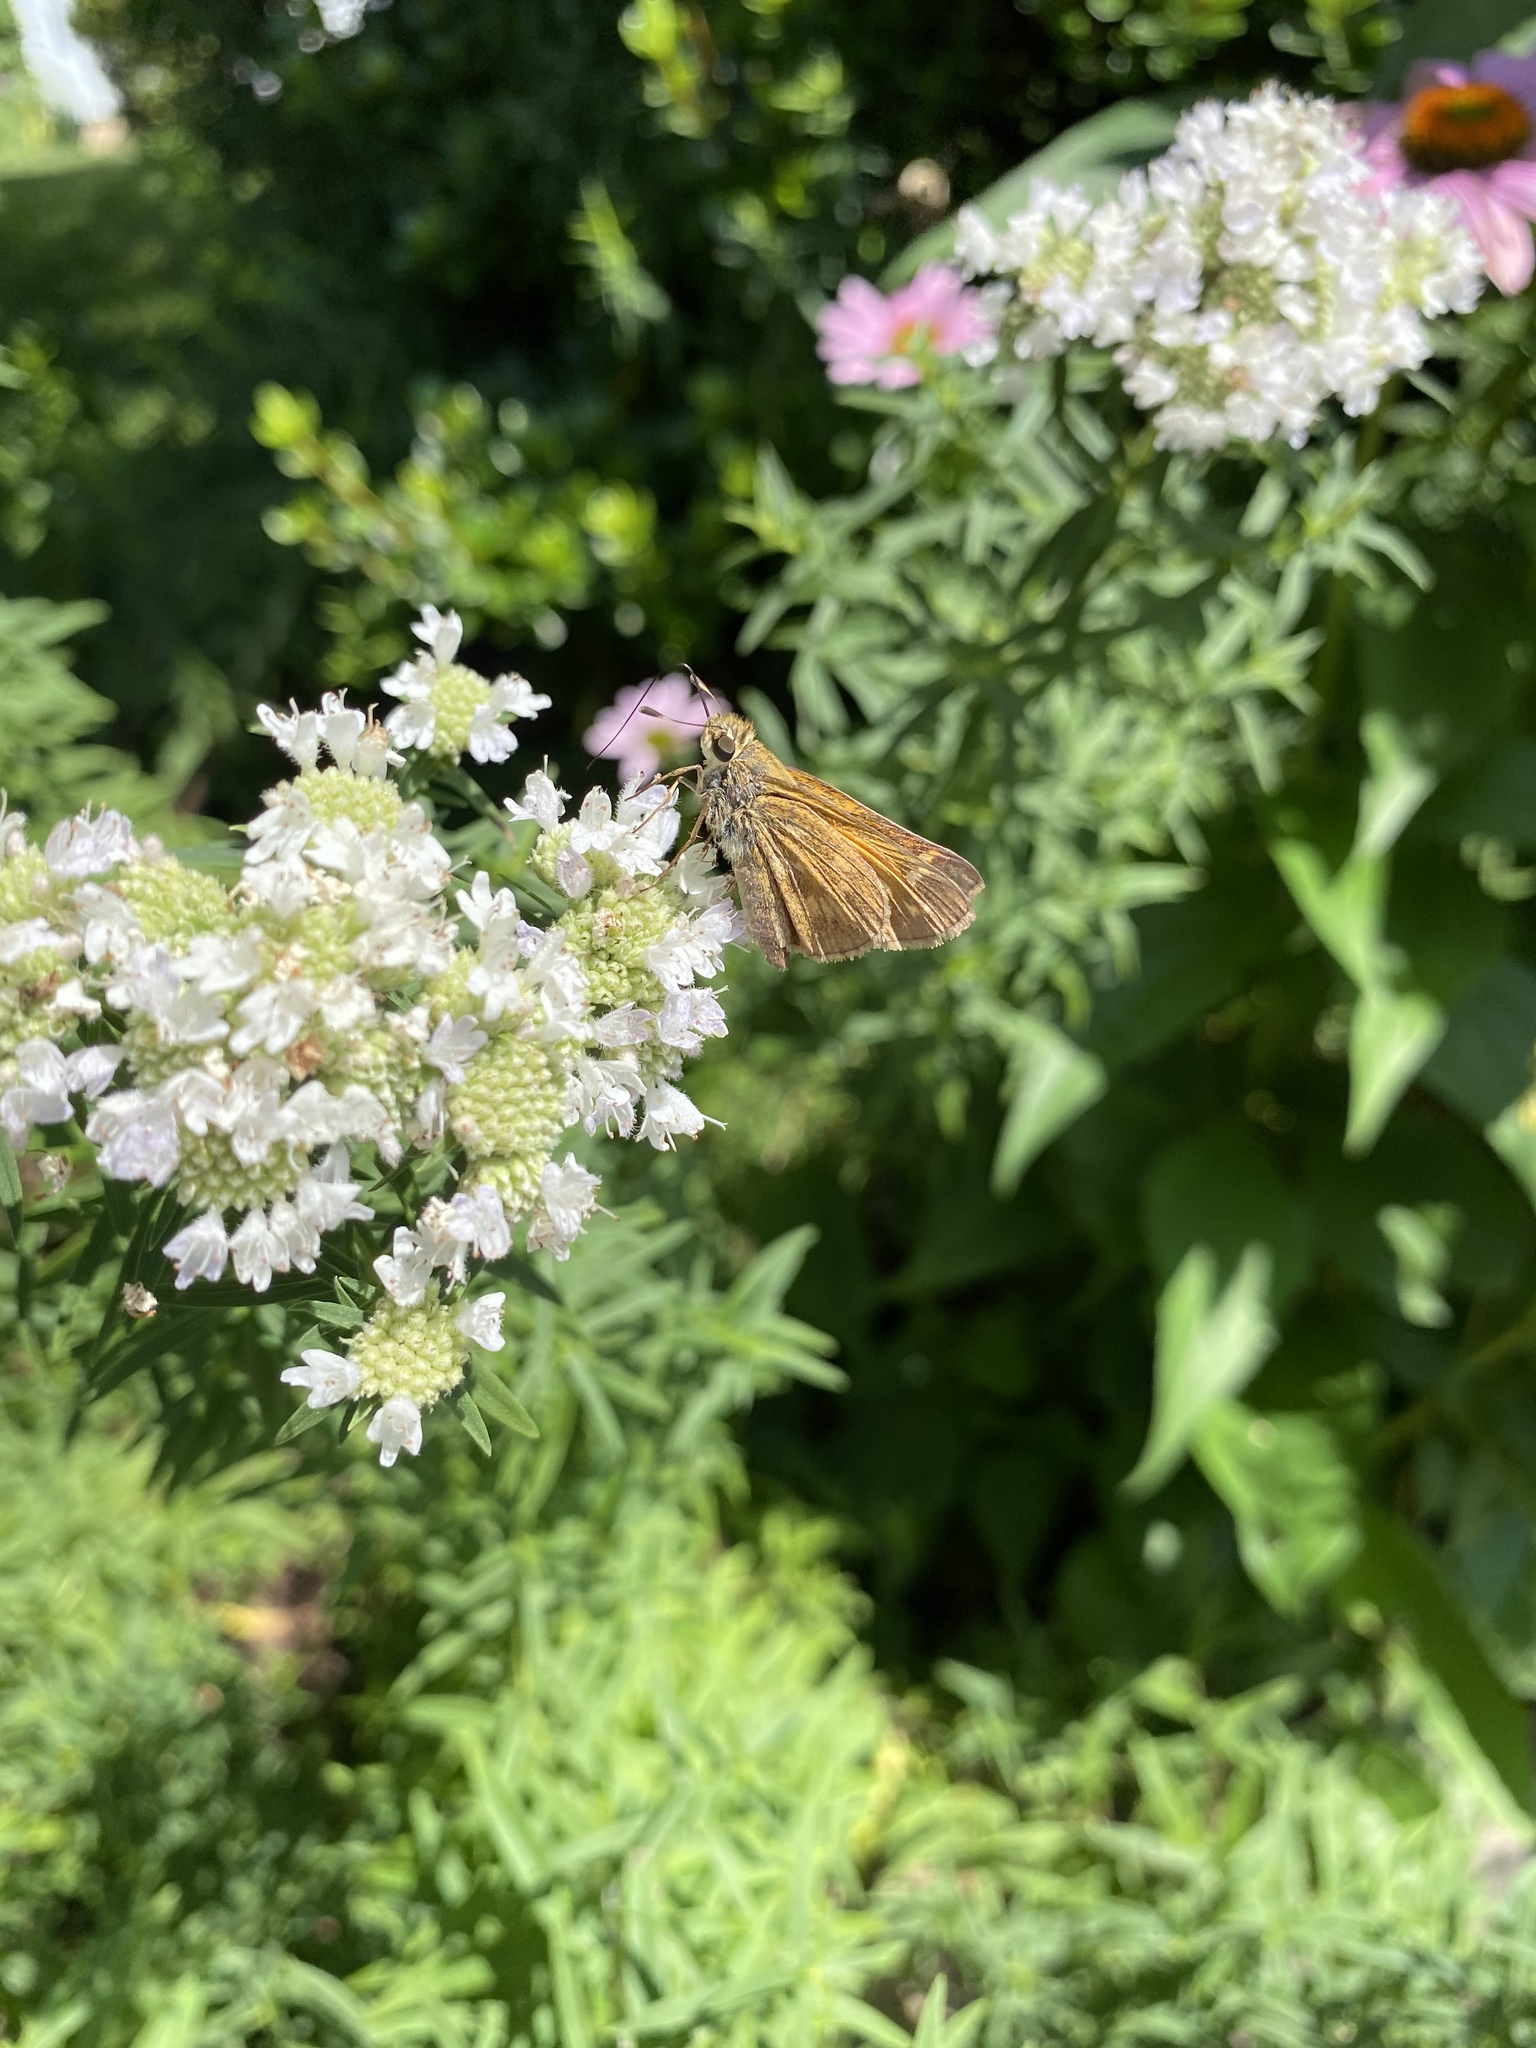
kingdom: Animalia
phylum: Arthropoda
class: Insecta
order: Lepidoptera
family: Hesperiidae
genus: Atalopedes
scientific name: Atalopedes
